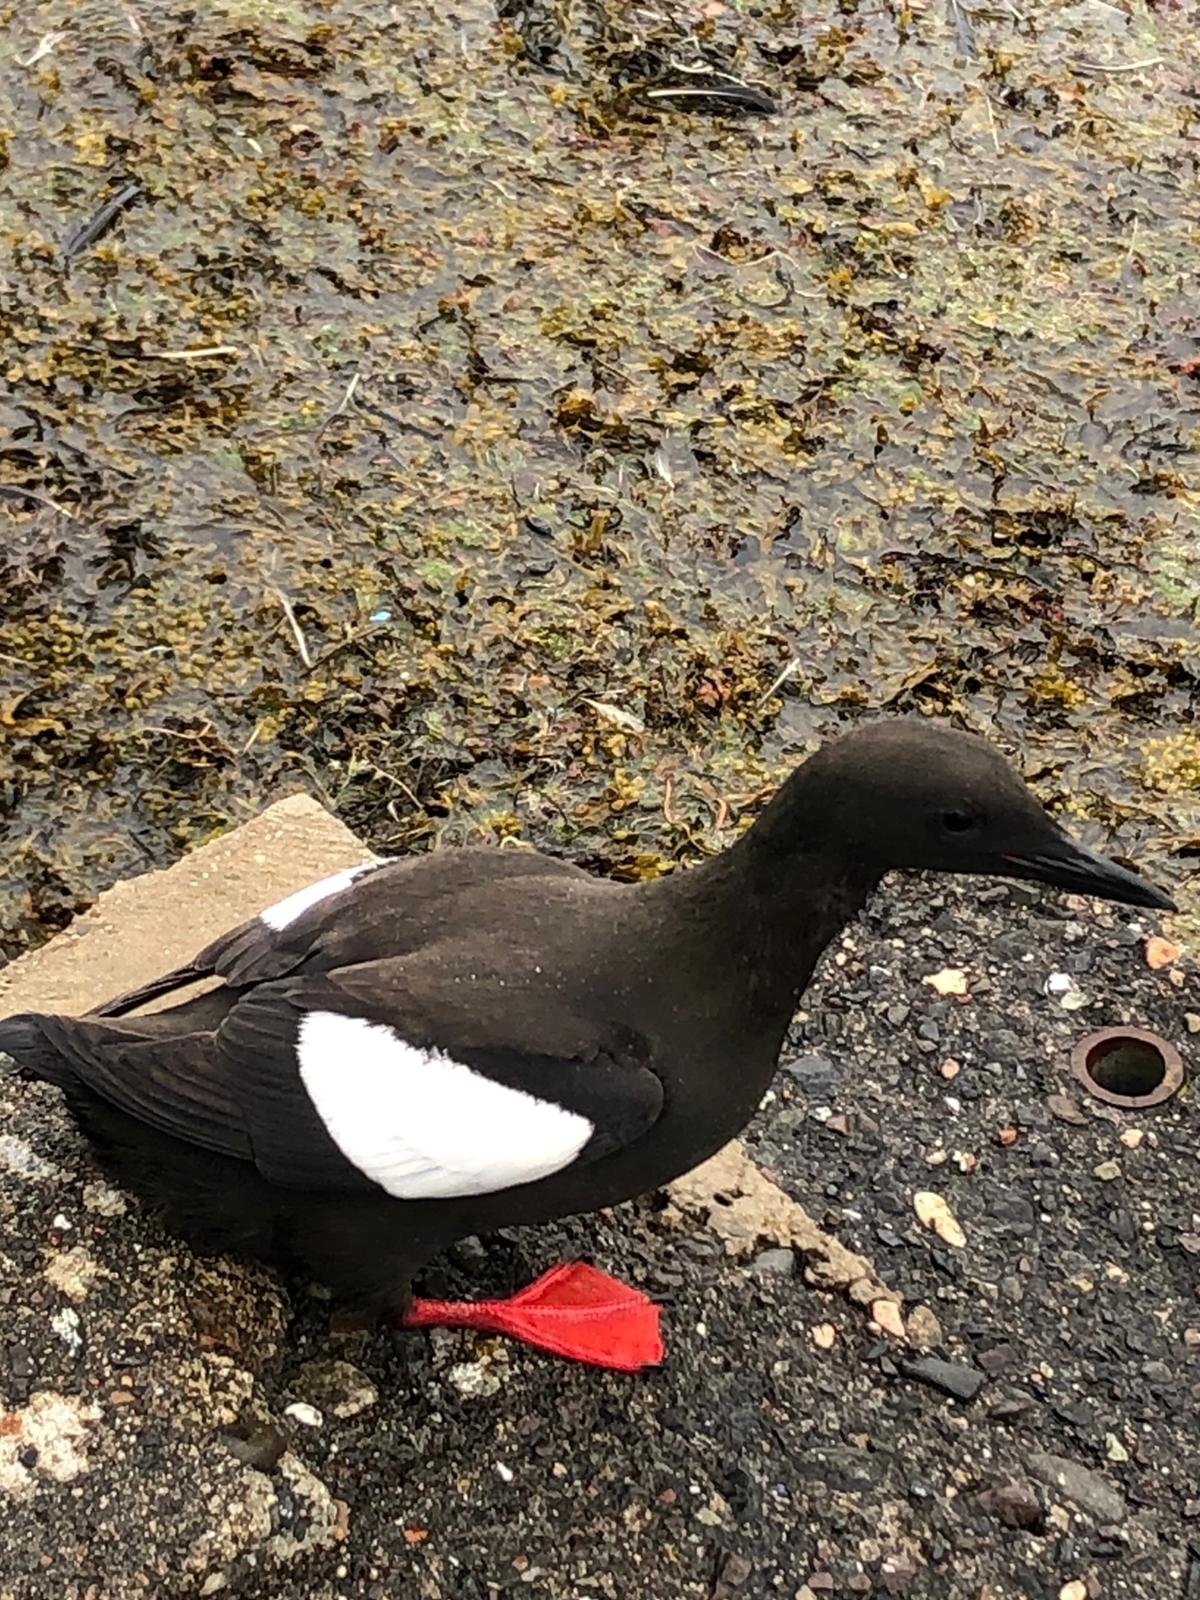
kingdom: Animalia
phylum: Chordata
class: Aves
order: Charadriiformes
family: Alcidae
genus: Cepphus
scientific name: Cepphus grylle
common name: Black guillemot
